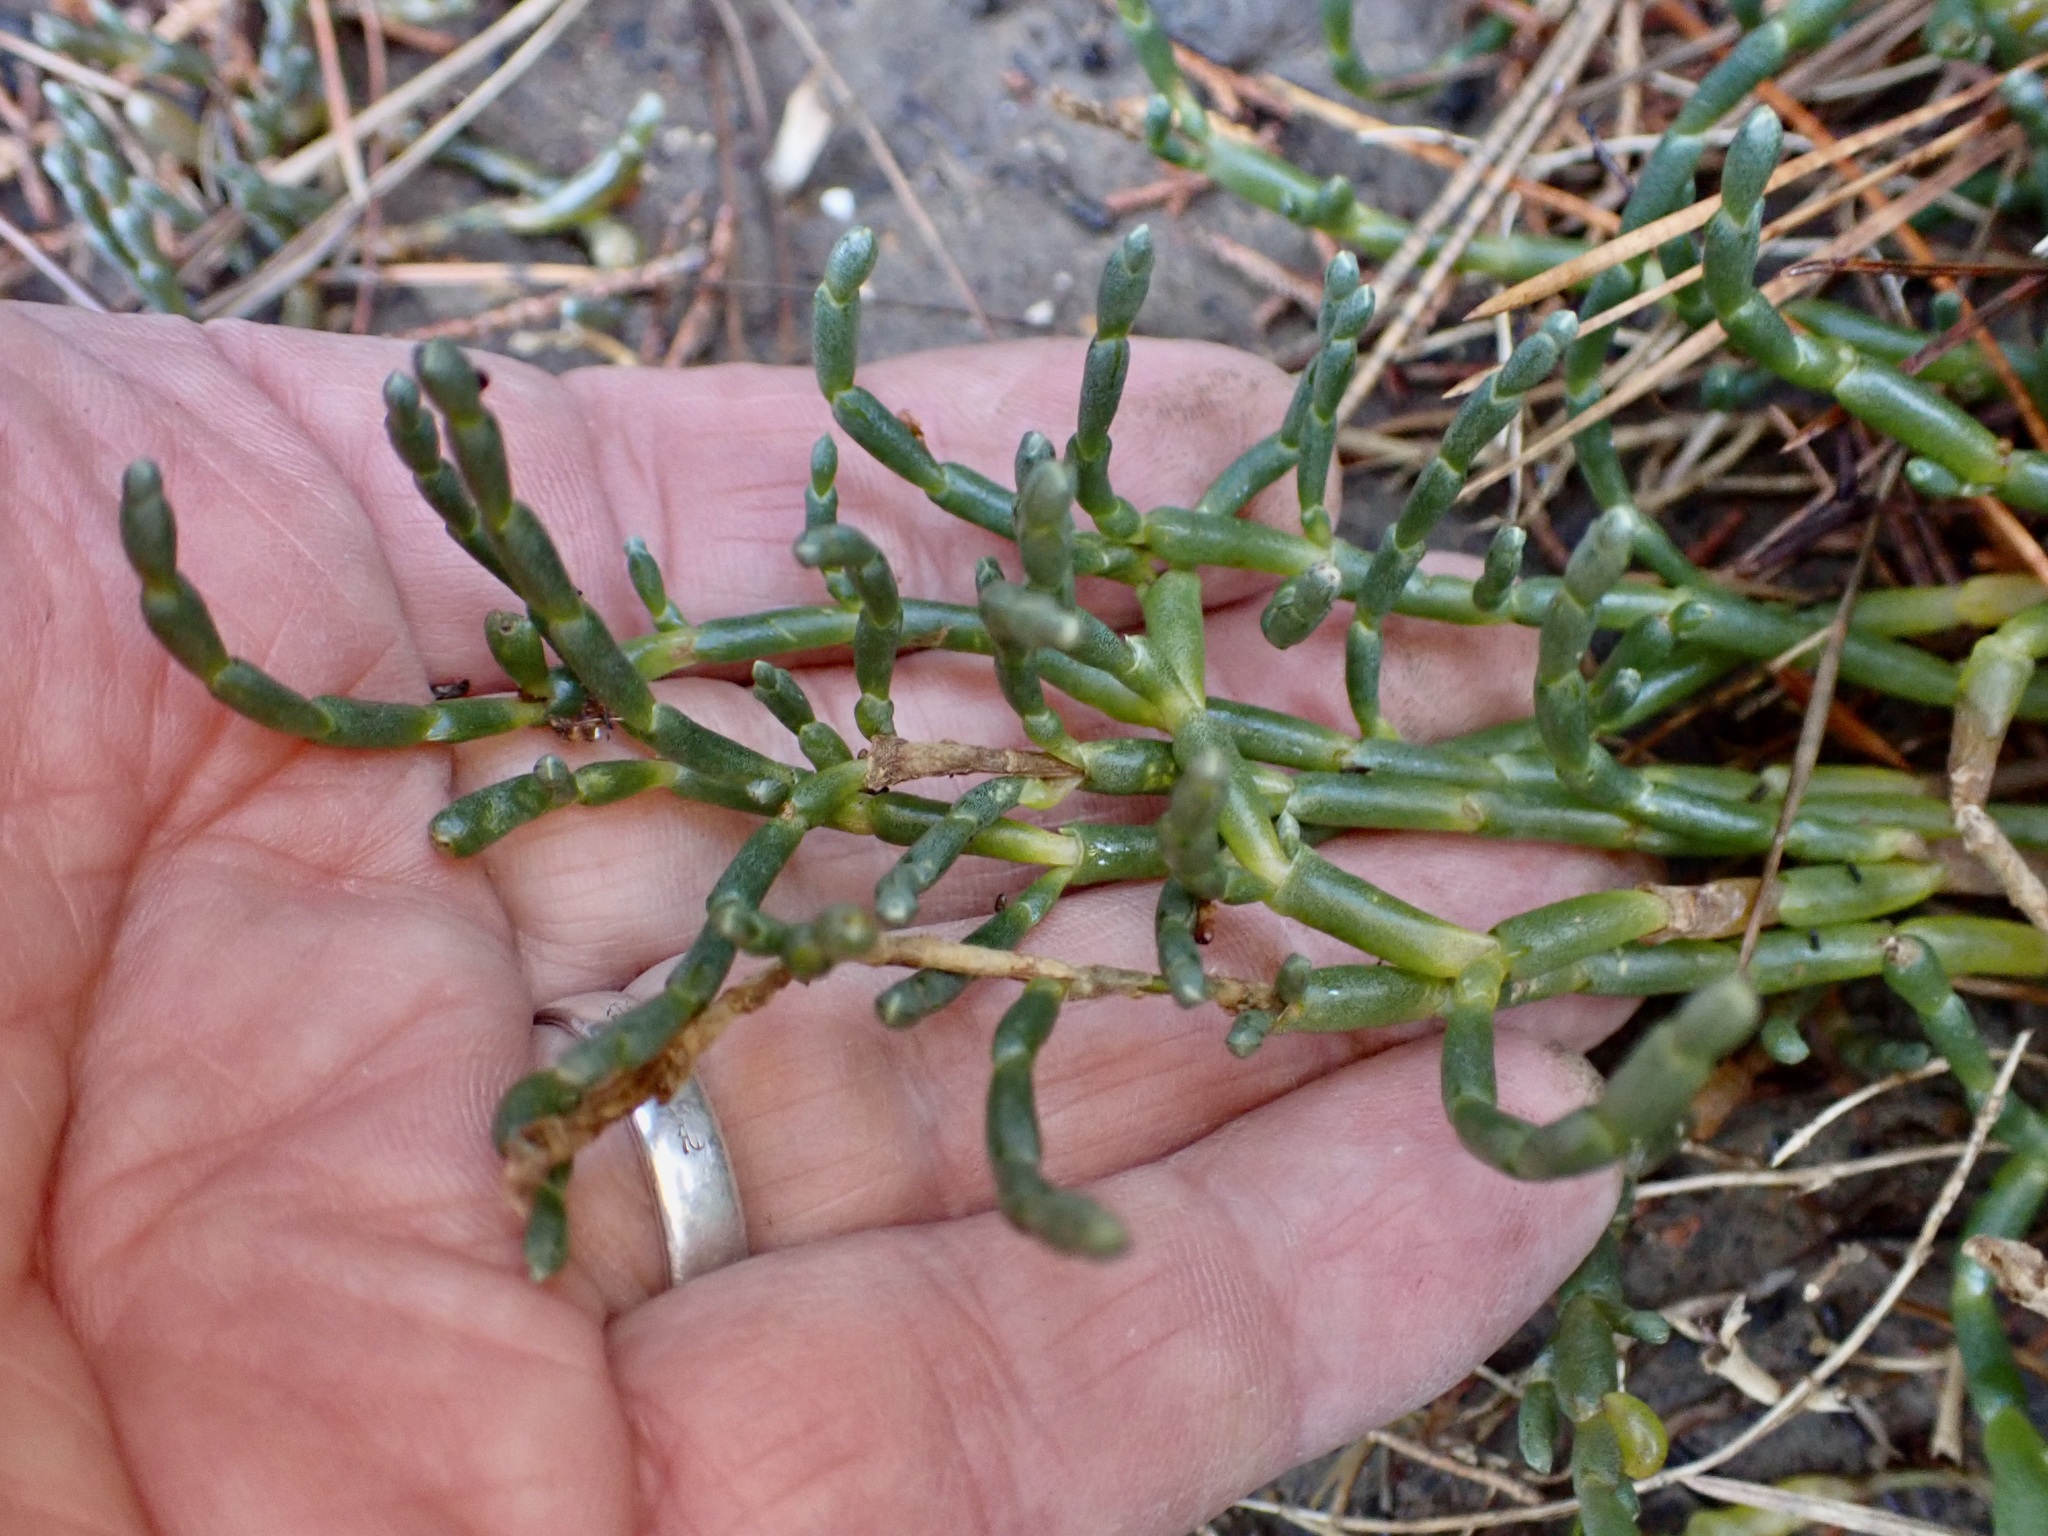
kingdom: Plantae
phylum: Tracheophyta
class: Magnoliopsida
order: Caryophyllales
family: Amaranthaceae
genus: Salicornia
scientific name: Salicornia quinqueflora
